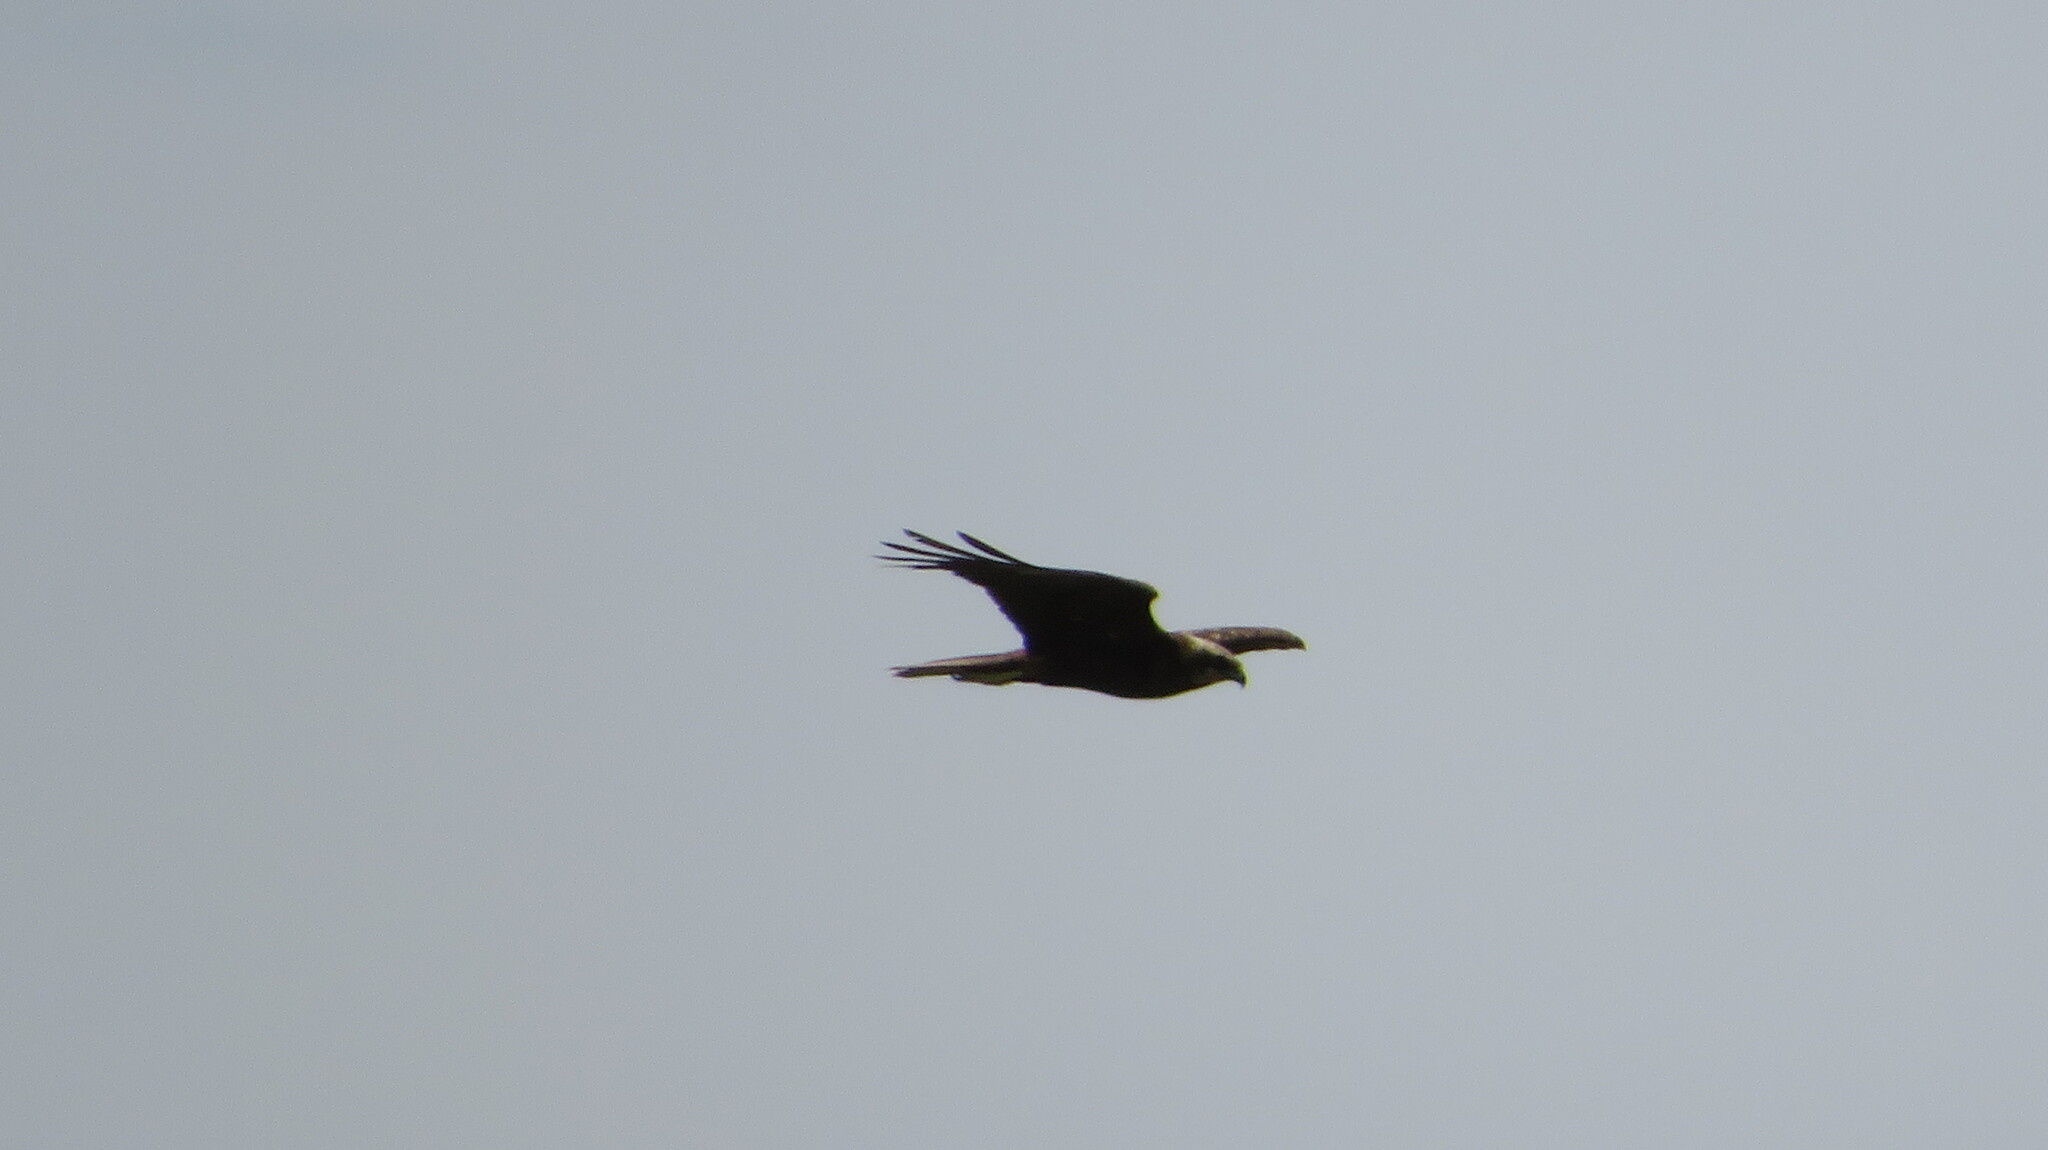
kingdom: Animalia
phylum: Chordata
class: Aves
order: Accipitriformes
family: Accipitridae
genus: Circus
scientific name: Circus aeruginosus
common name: Western marsh harrier
